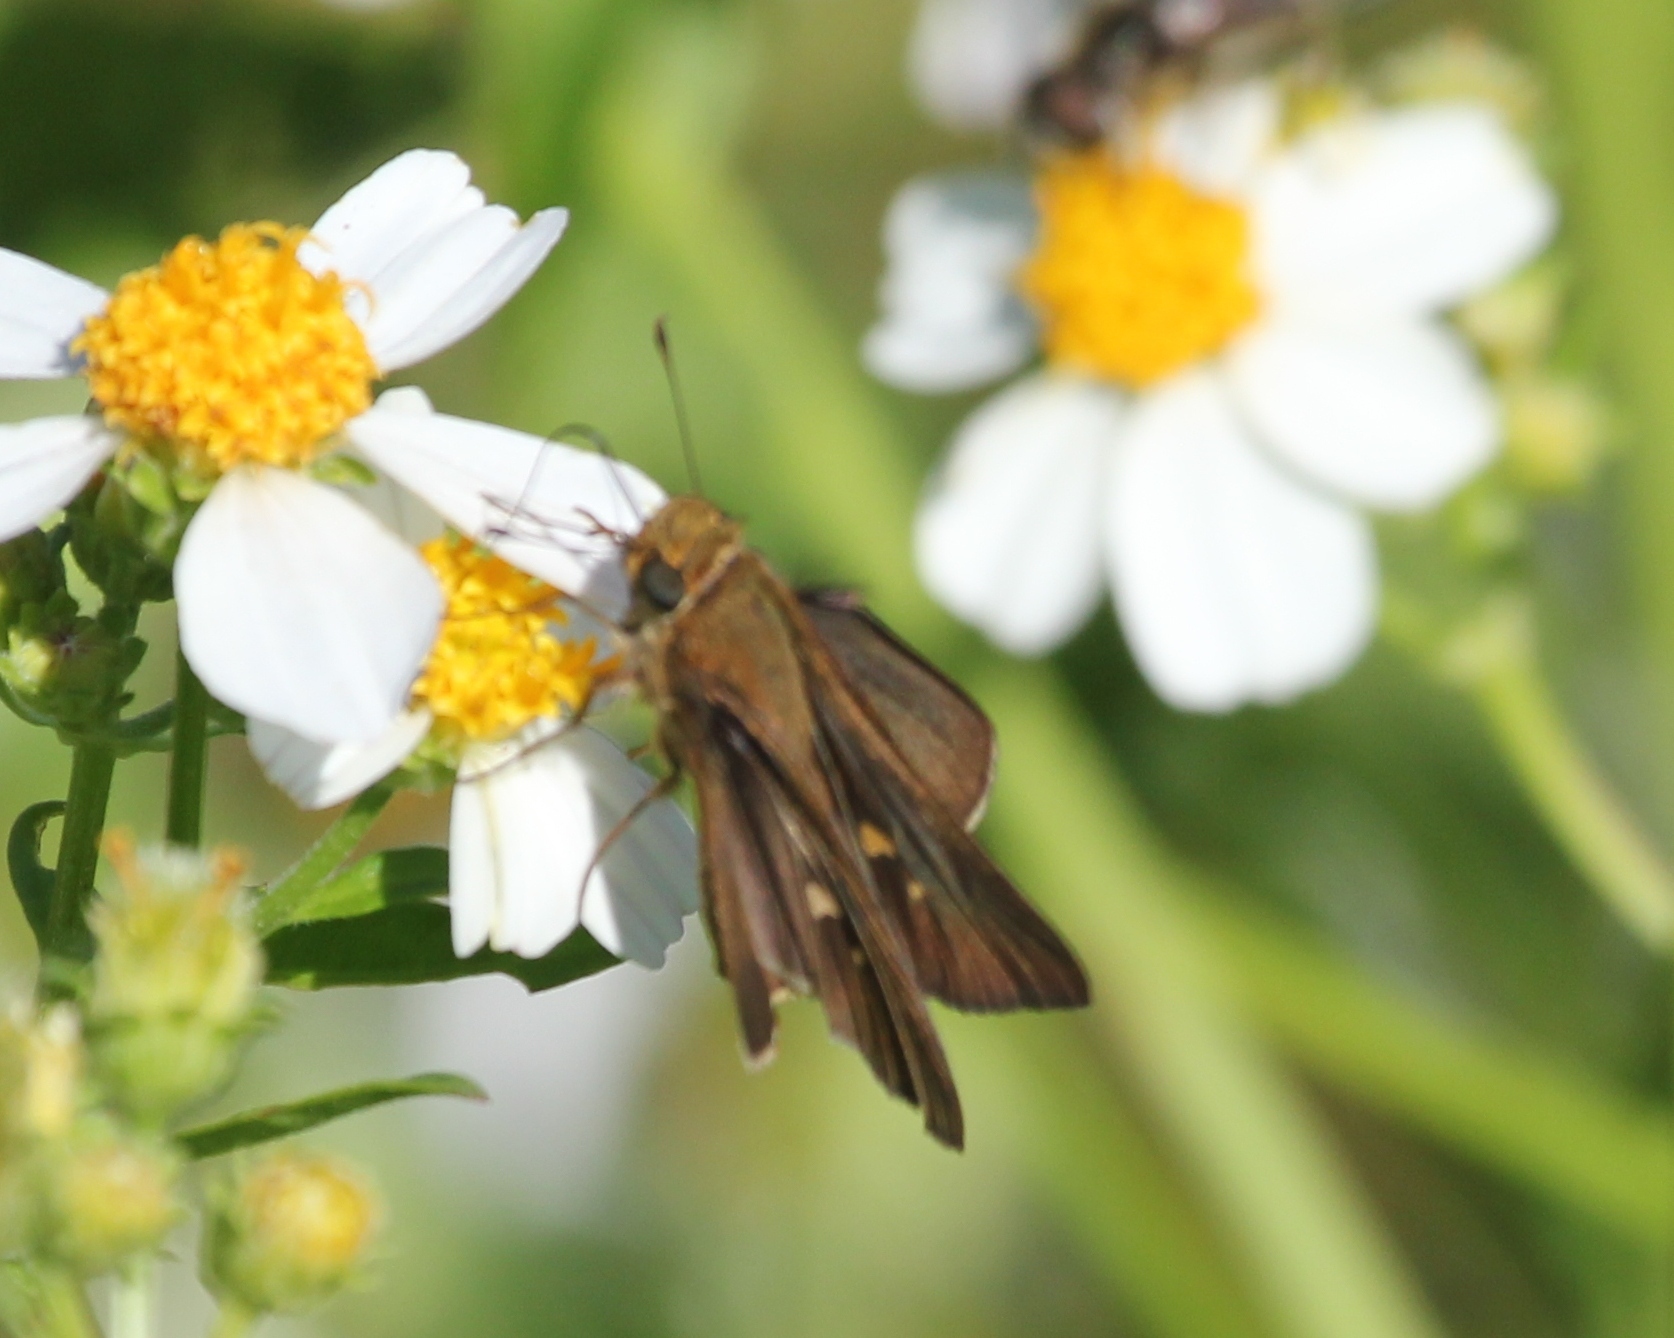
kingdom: Animalia
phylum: Arthropoda
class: Insecta
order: Lepidoptera
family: Hesperiidae
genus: Panoquina
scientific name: Panoquina ocola
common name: Ocola skipper
